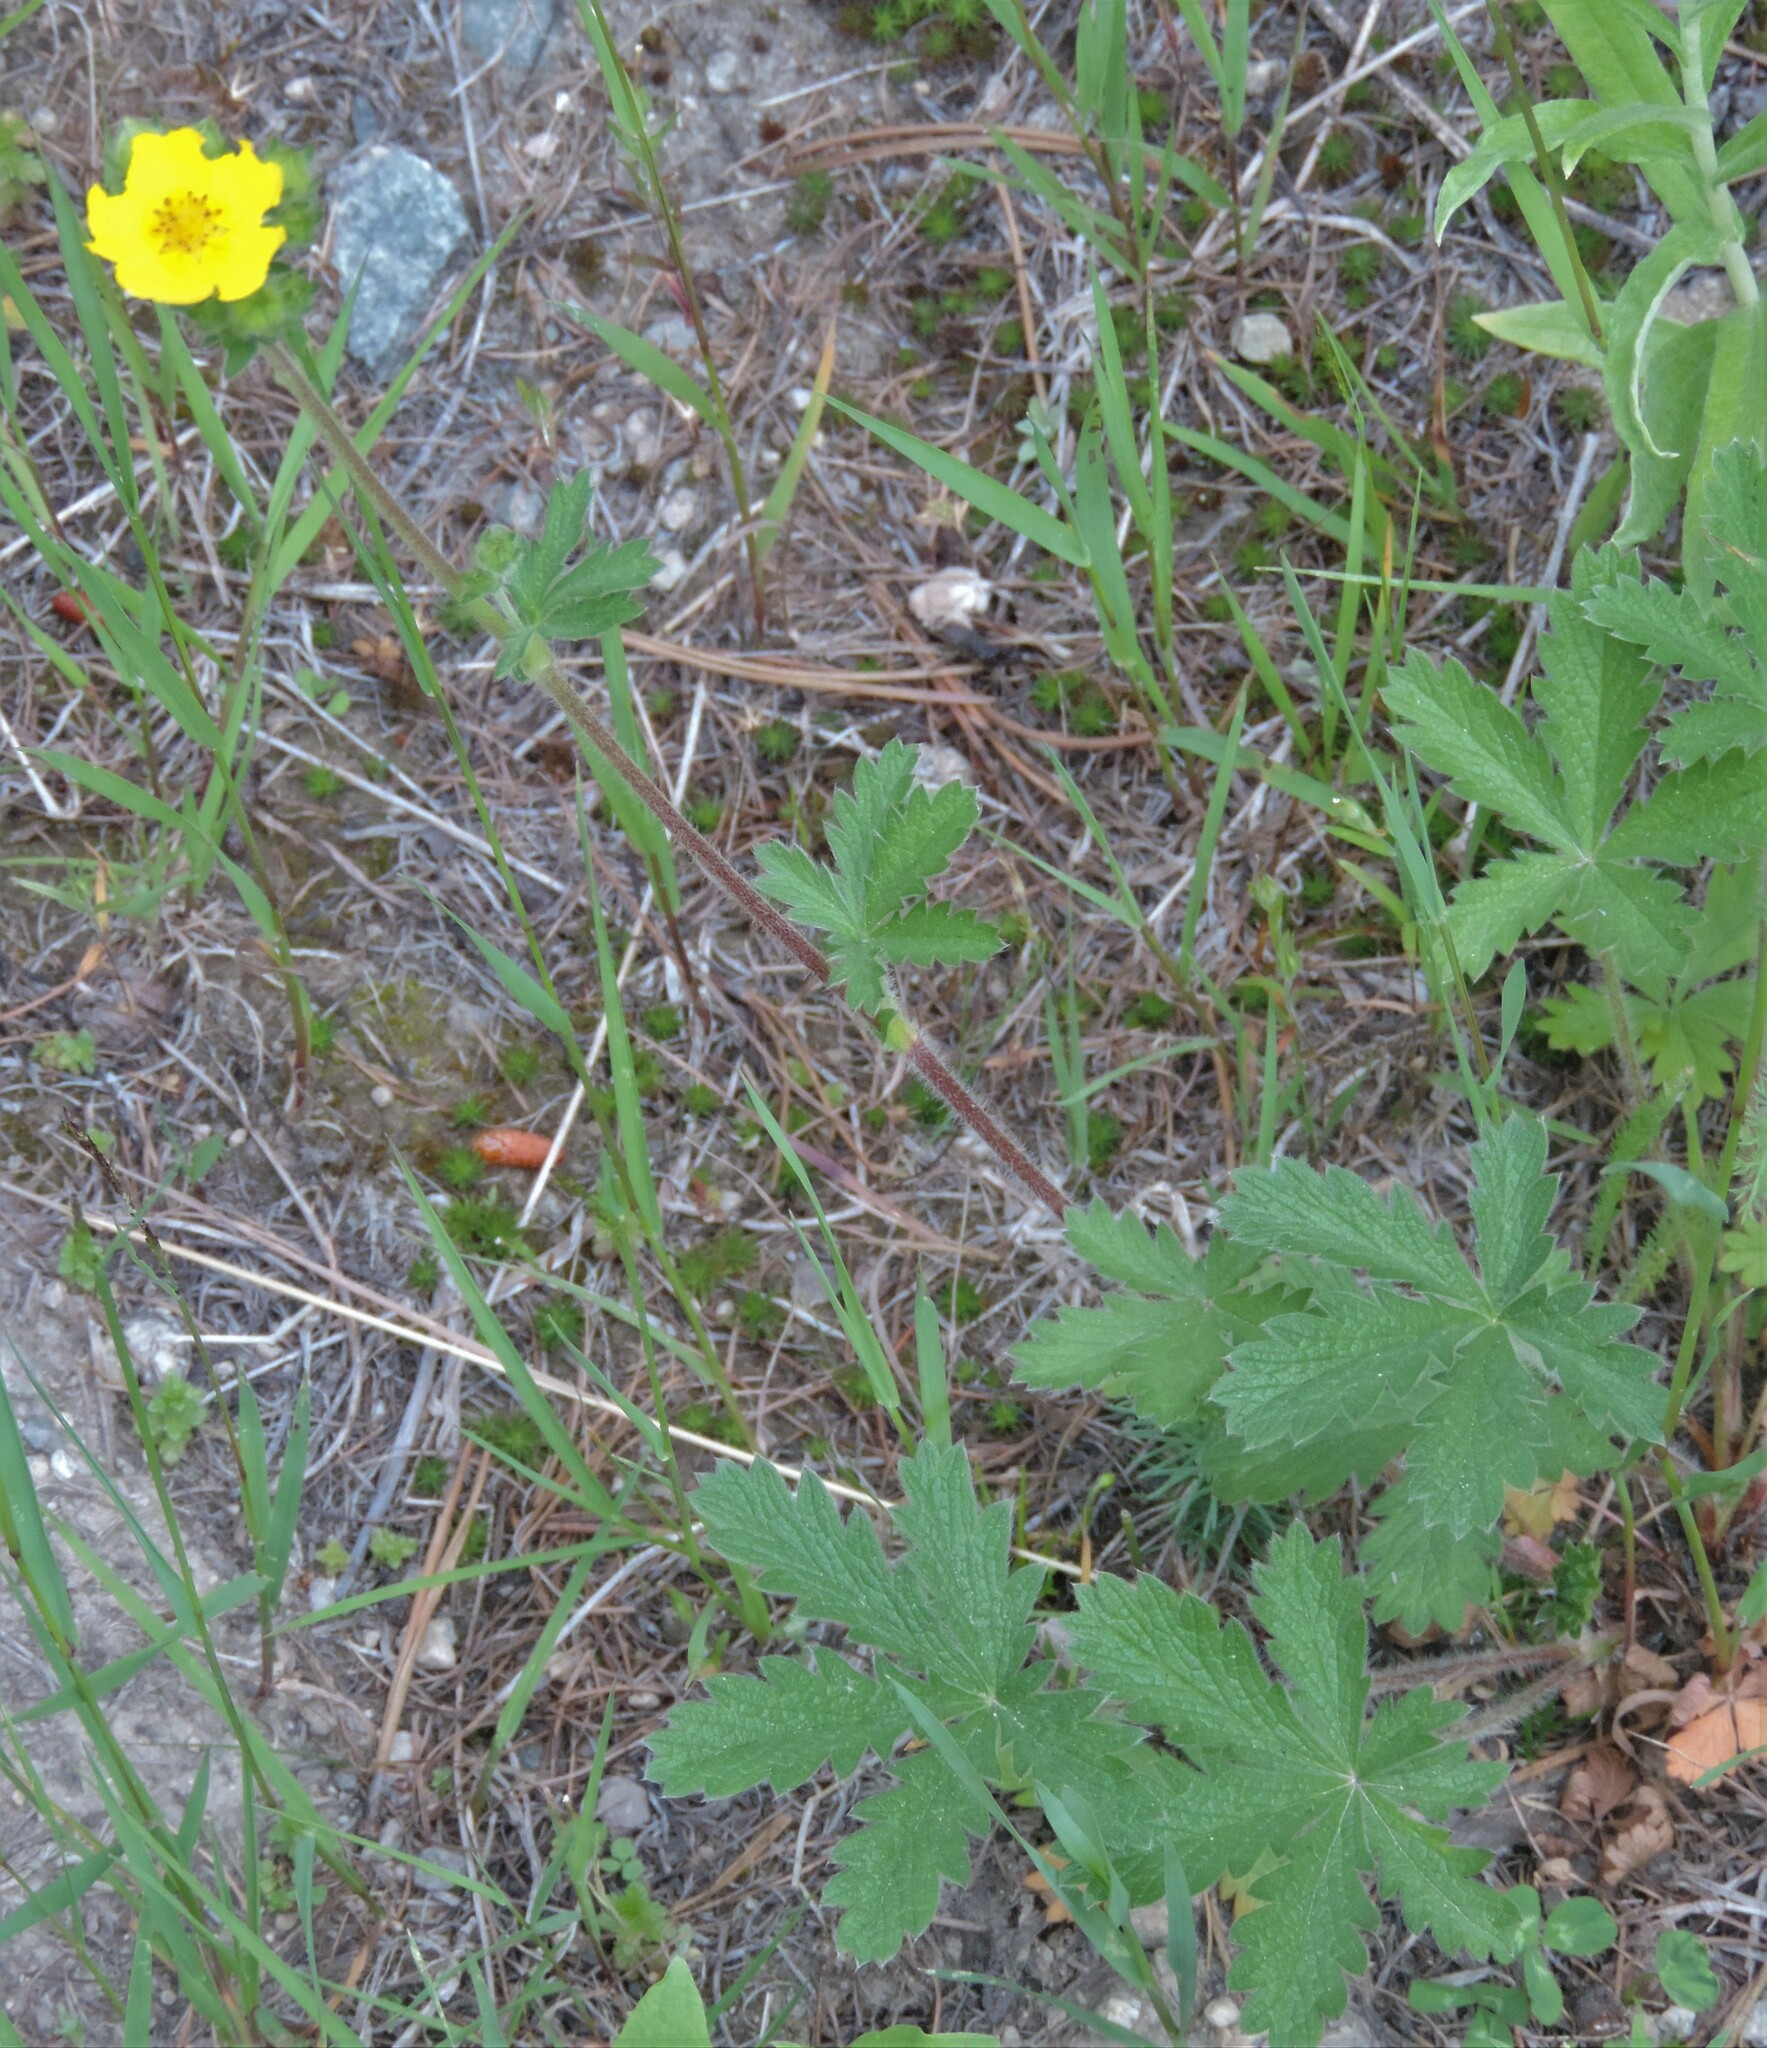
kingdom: Plantae
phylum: Tracheophyta
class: Magnoliopsida
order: Rosales
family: Rosaceae
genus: Potentilla
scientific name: Potentilla gracilis
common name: Graceful cinquefoil
